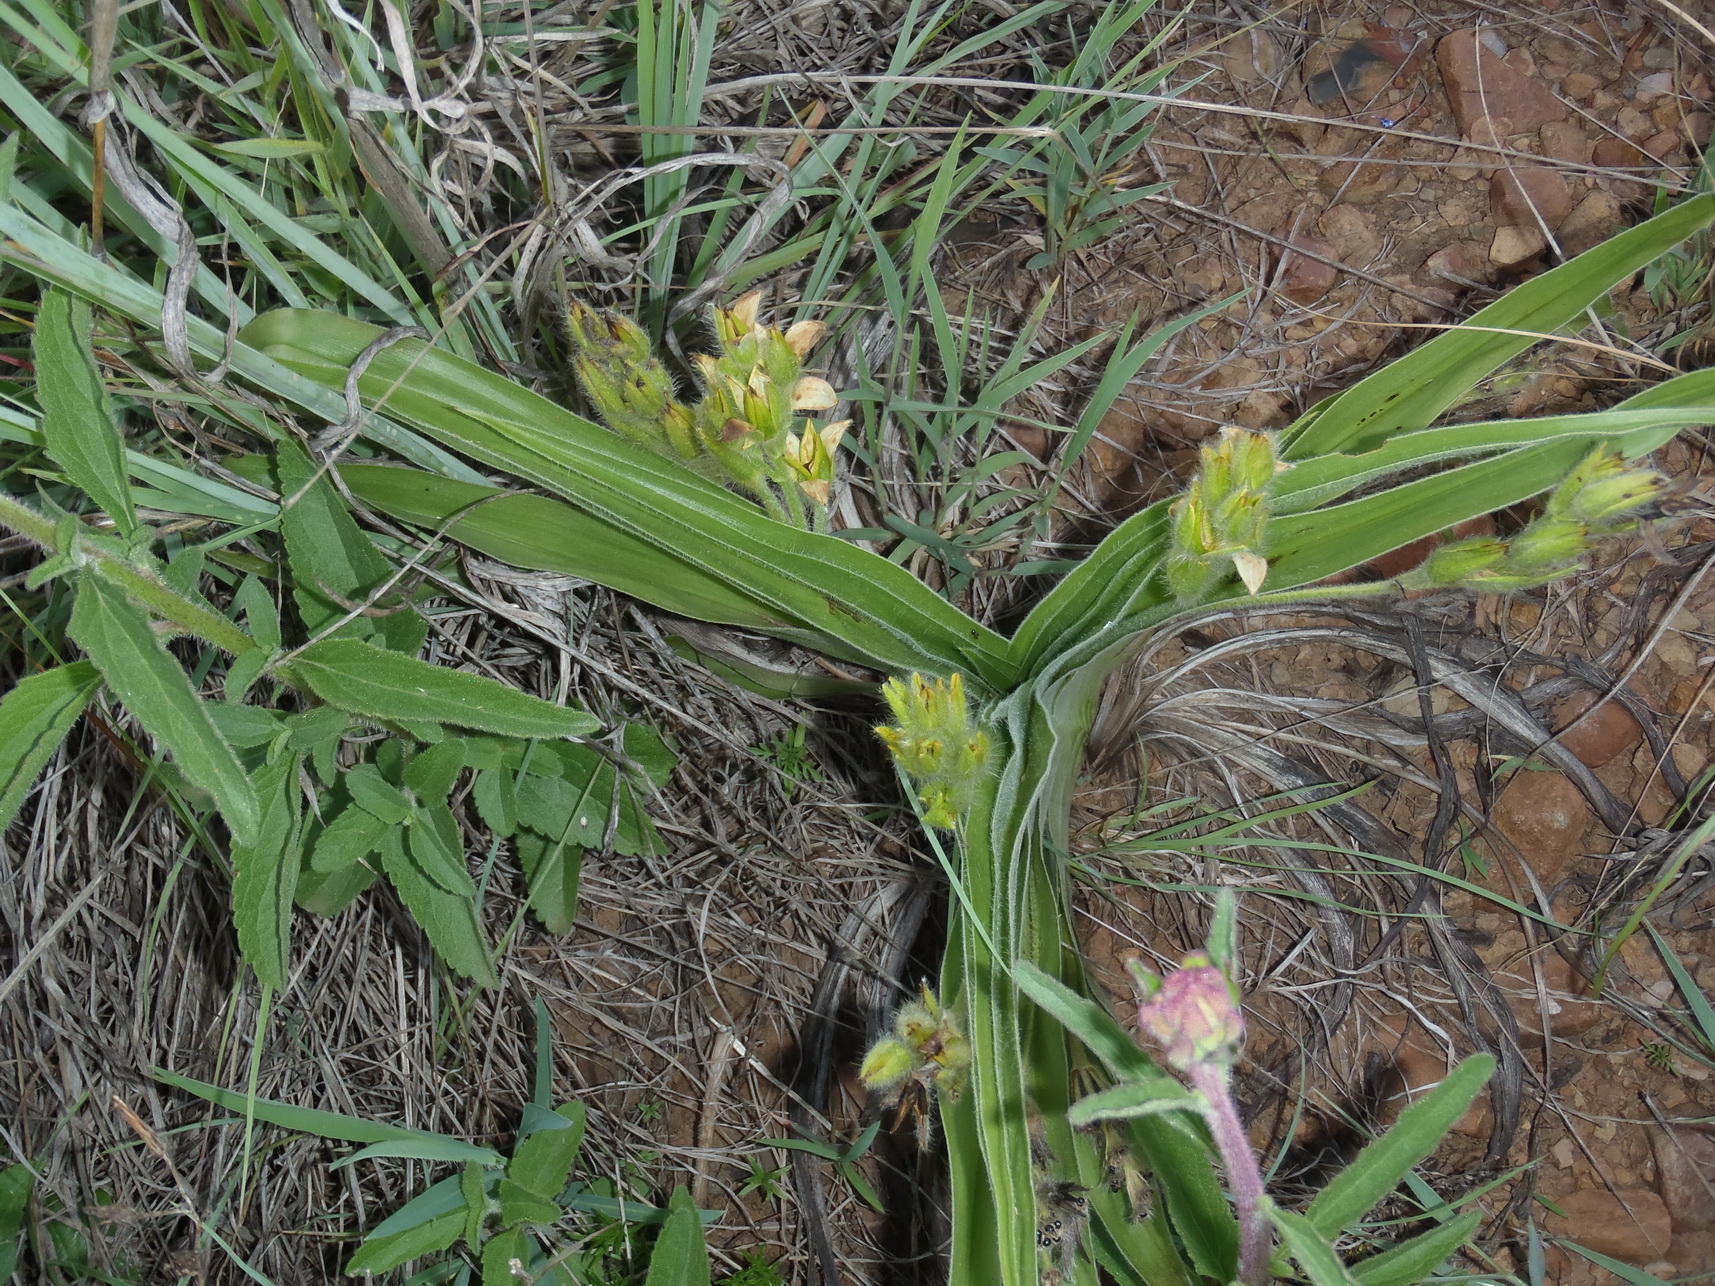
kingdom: Plantae
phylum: Tracheophyta
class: Liliopsida
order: Asparagales
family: Hypoxidaceae
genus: Hypoxis
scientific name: Hypoxis hemerocallidea
